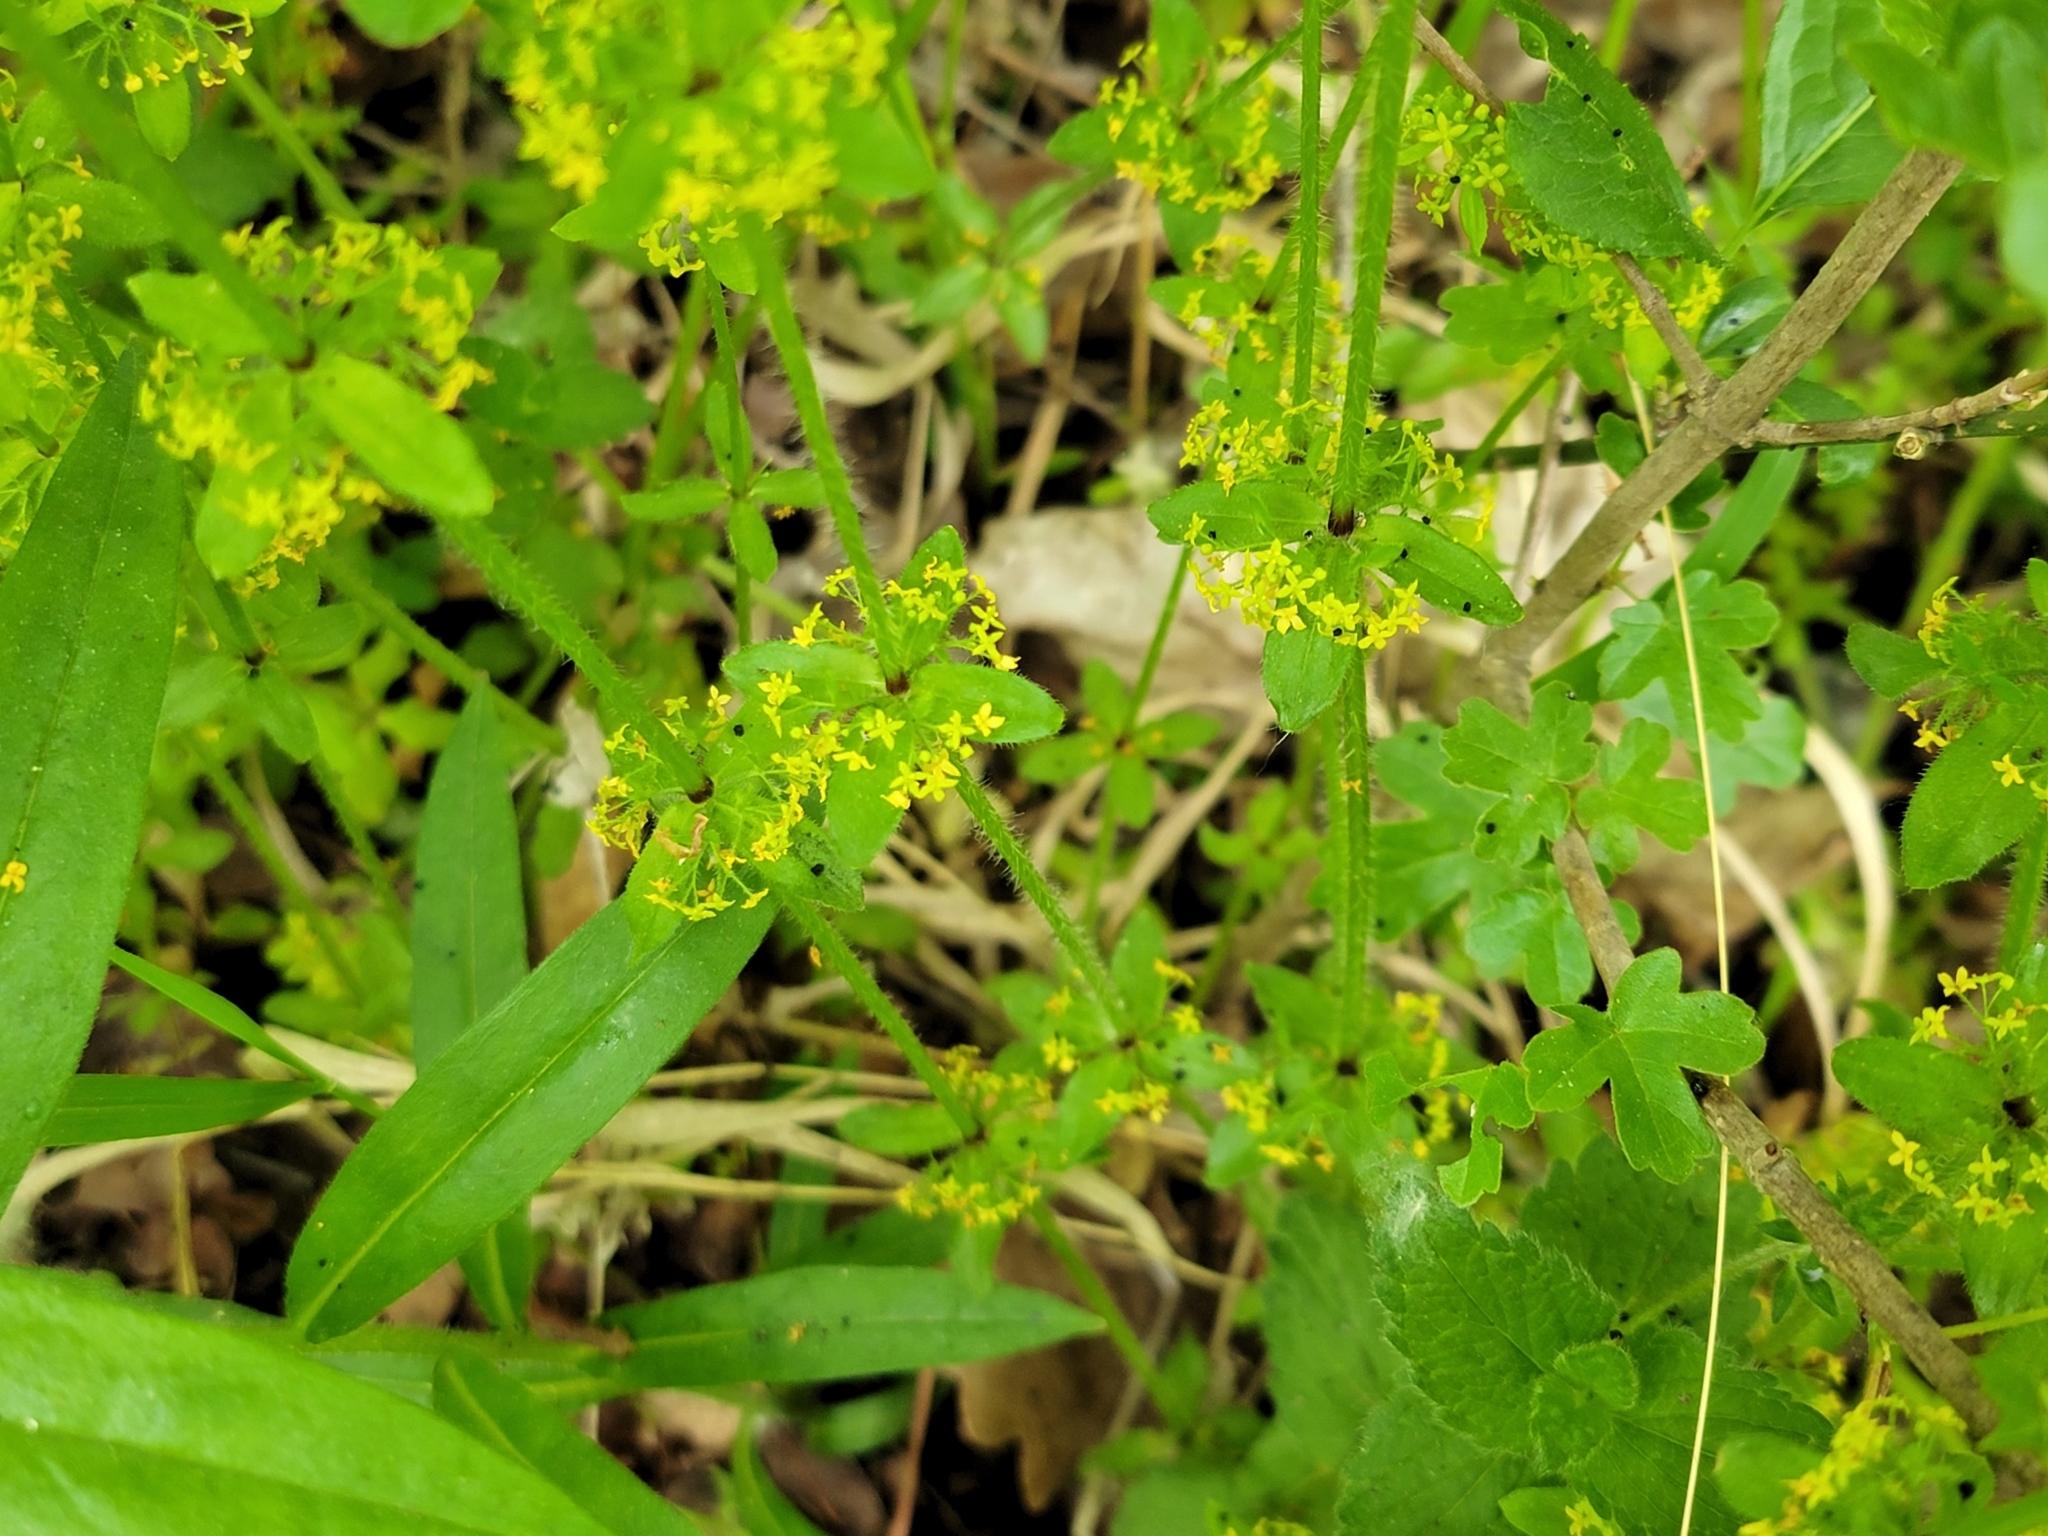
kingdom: Plantae
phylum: Tracheophyta
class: Magnoliopsida
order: Gentianales
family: Rubiaceae
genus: Cruciata
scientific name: Cruciata laevipes
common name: Crosswort
